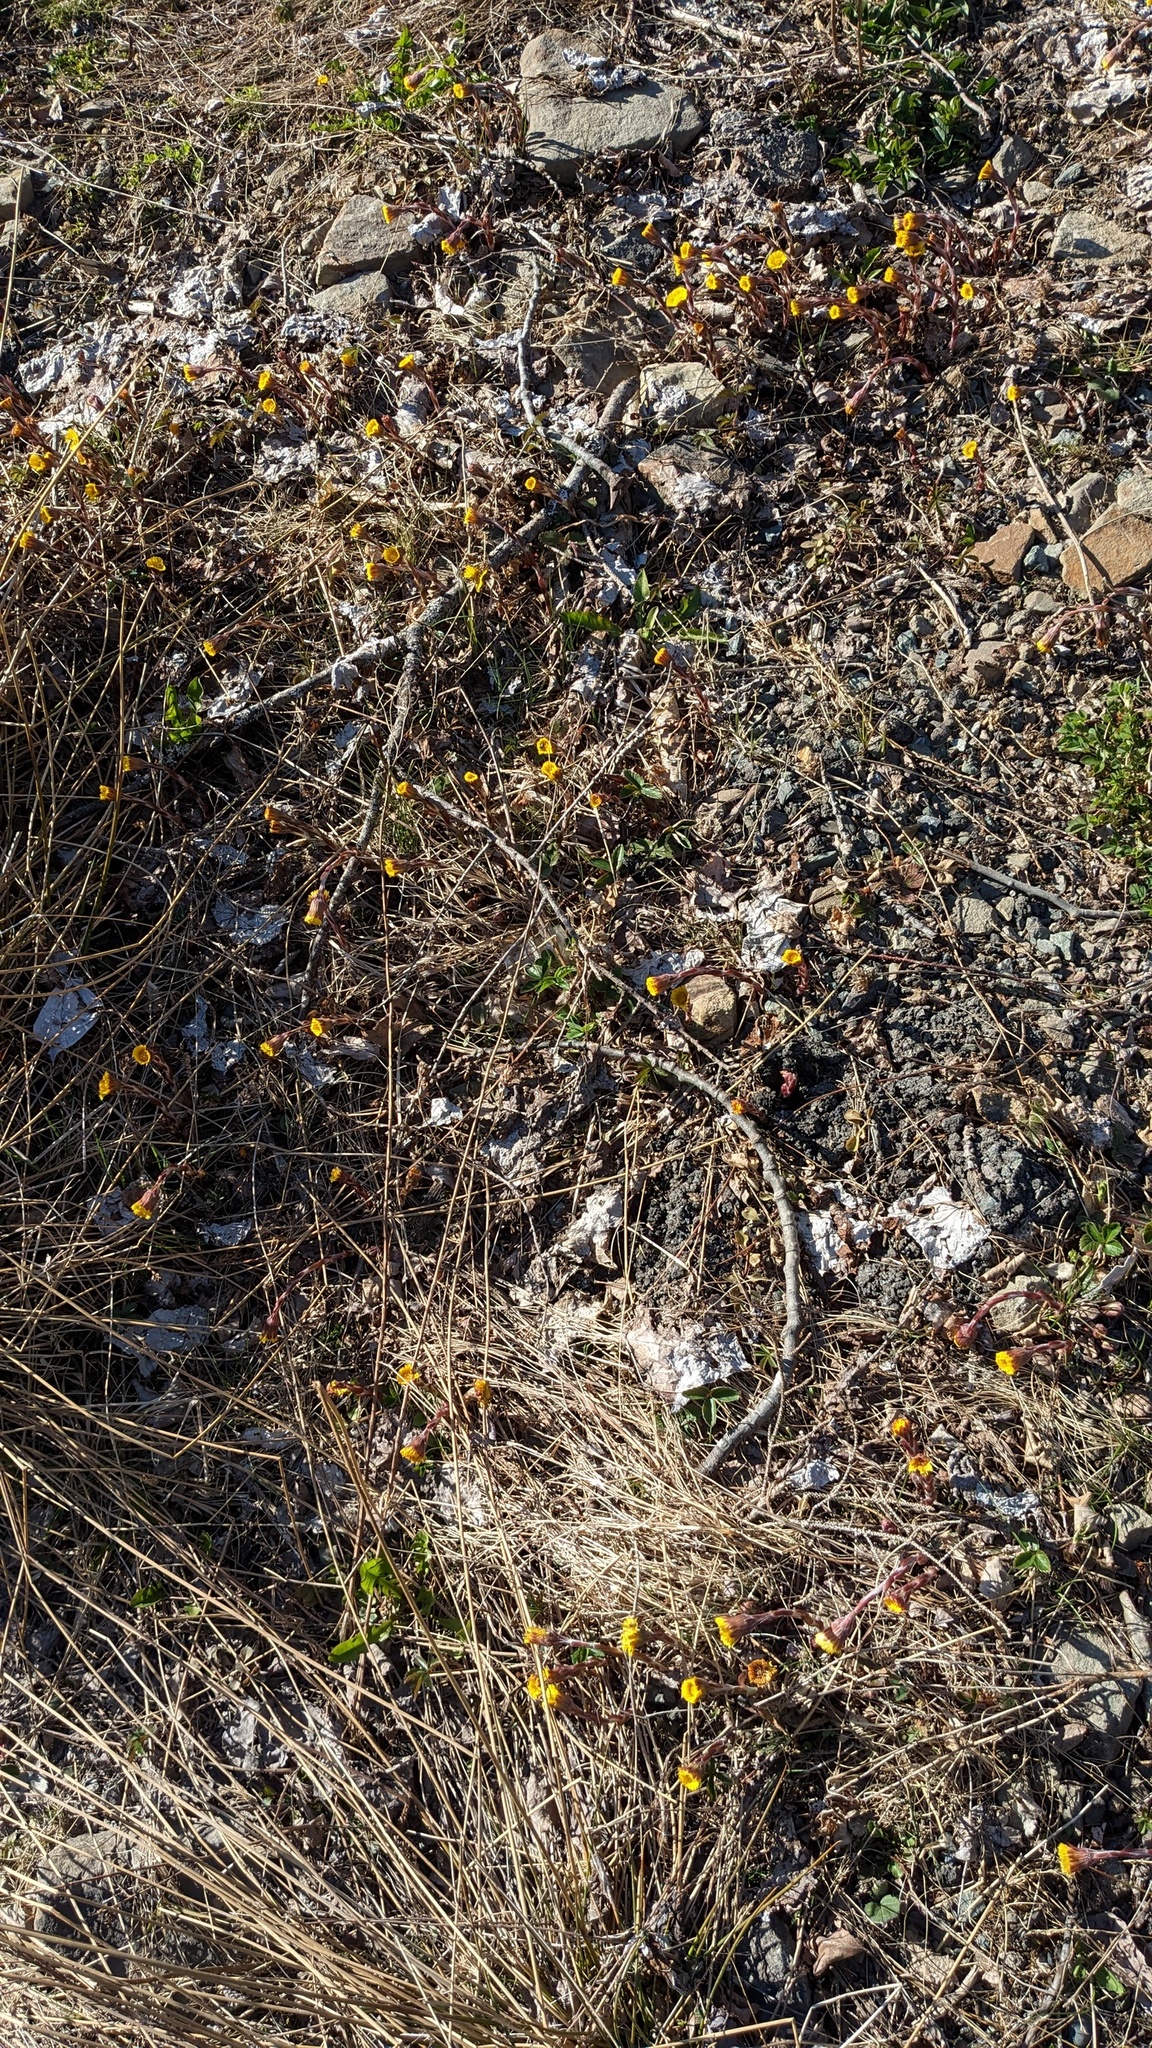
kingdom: Plantae
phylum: Tracheophyta
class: Magnoliopsida
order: Asterales
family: Asteraceae
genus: Tussilago
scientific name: Tussilago farfara
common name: Coltsfoot
